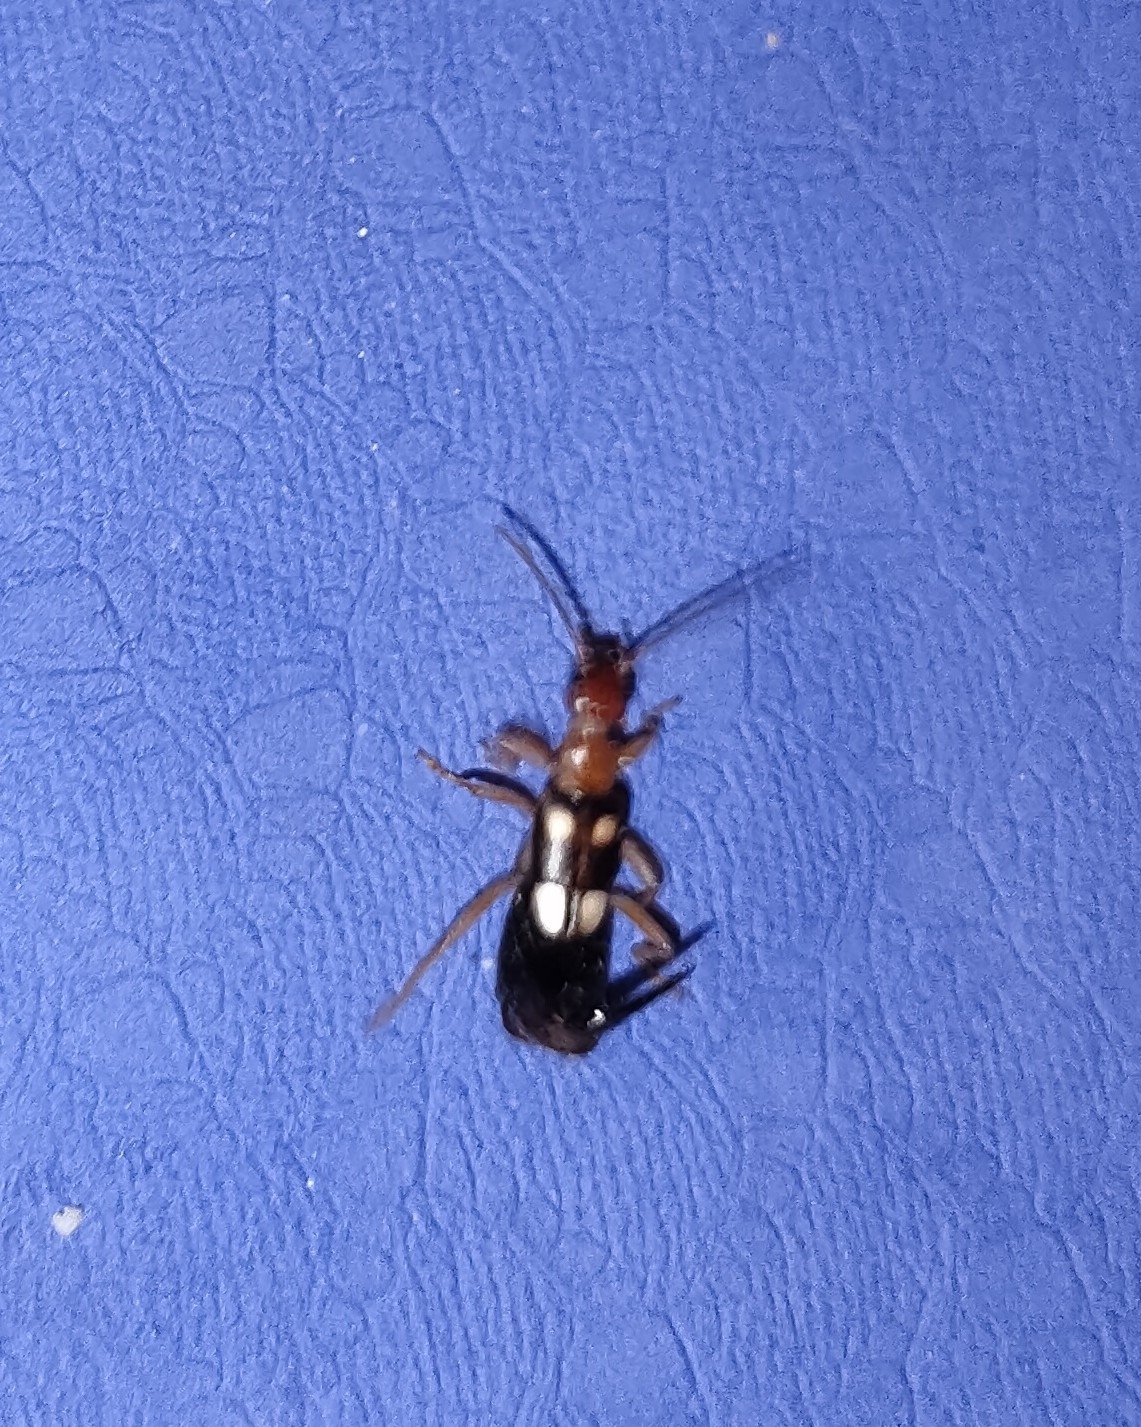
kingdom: Animalia
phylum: Arthropoda
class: Insecta
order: Dermaptera
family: Forficulidae
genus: Forficula
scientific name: Forficula smyrnensis
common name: Smyrna earwig
